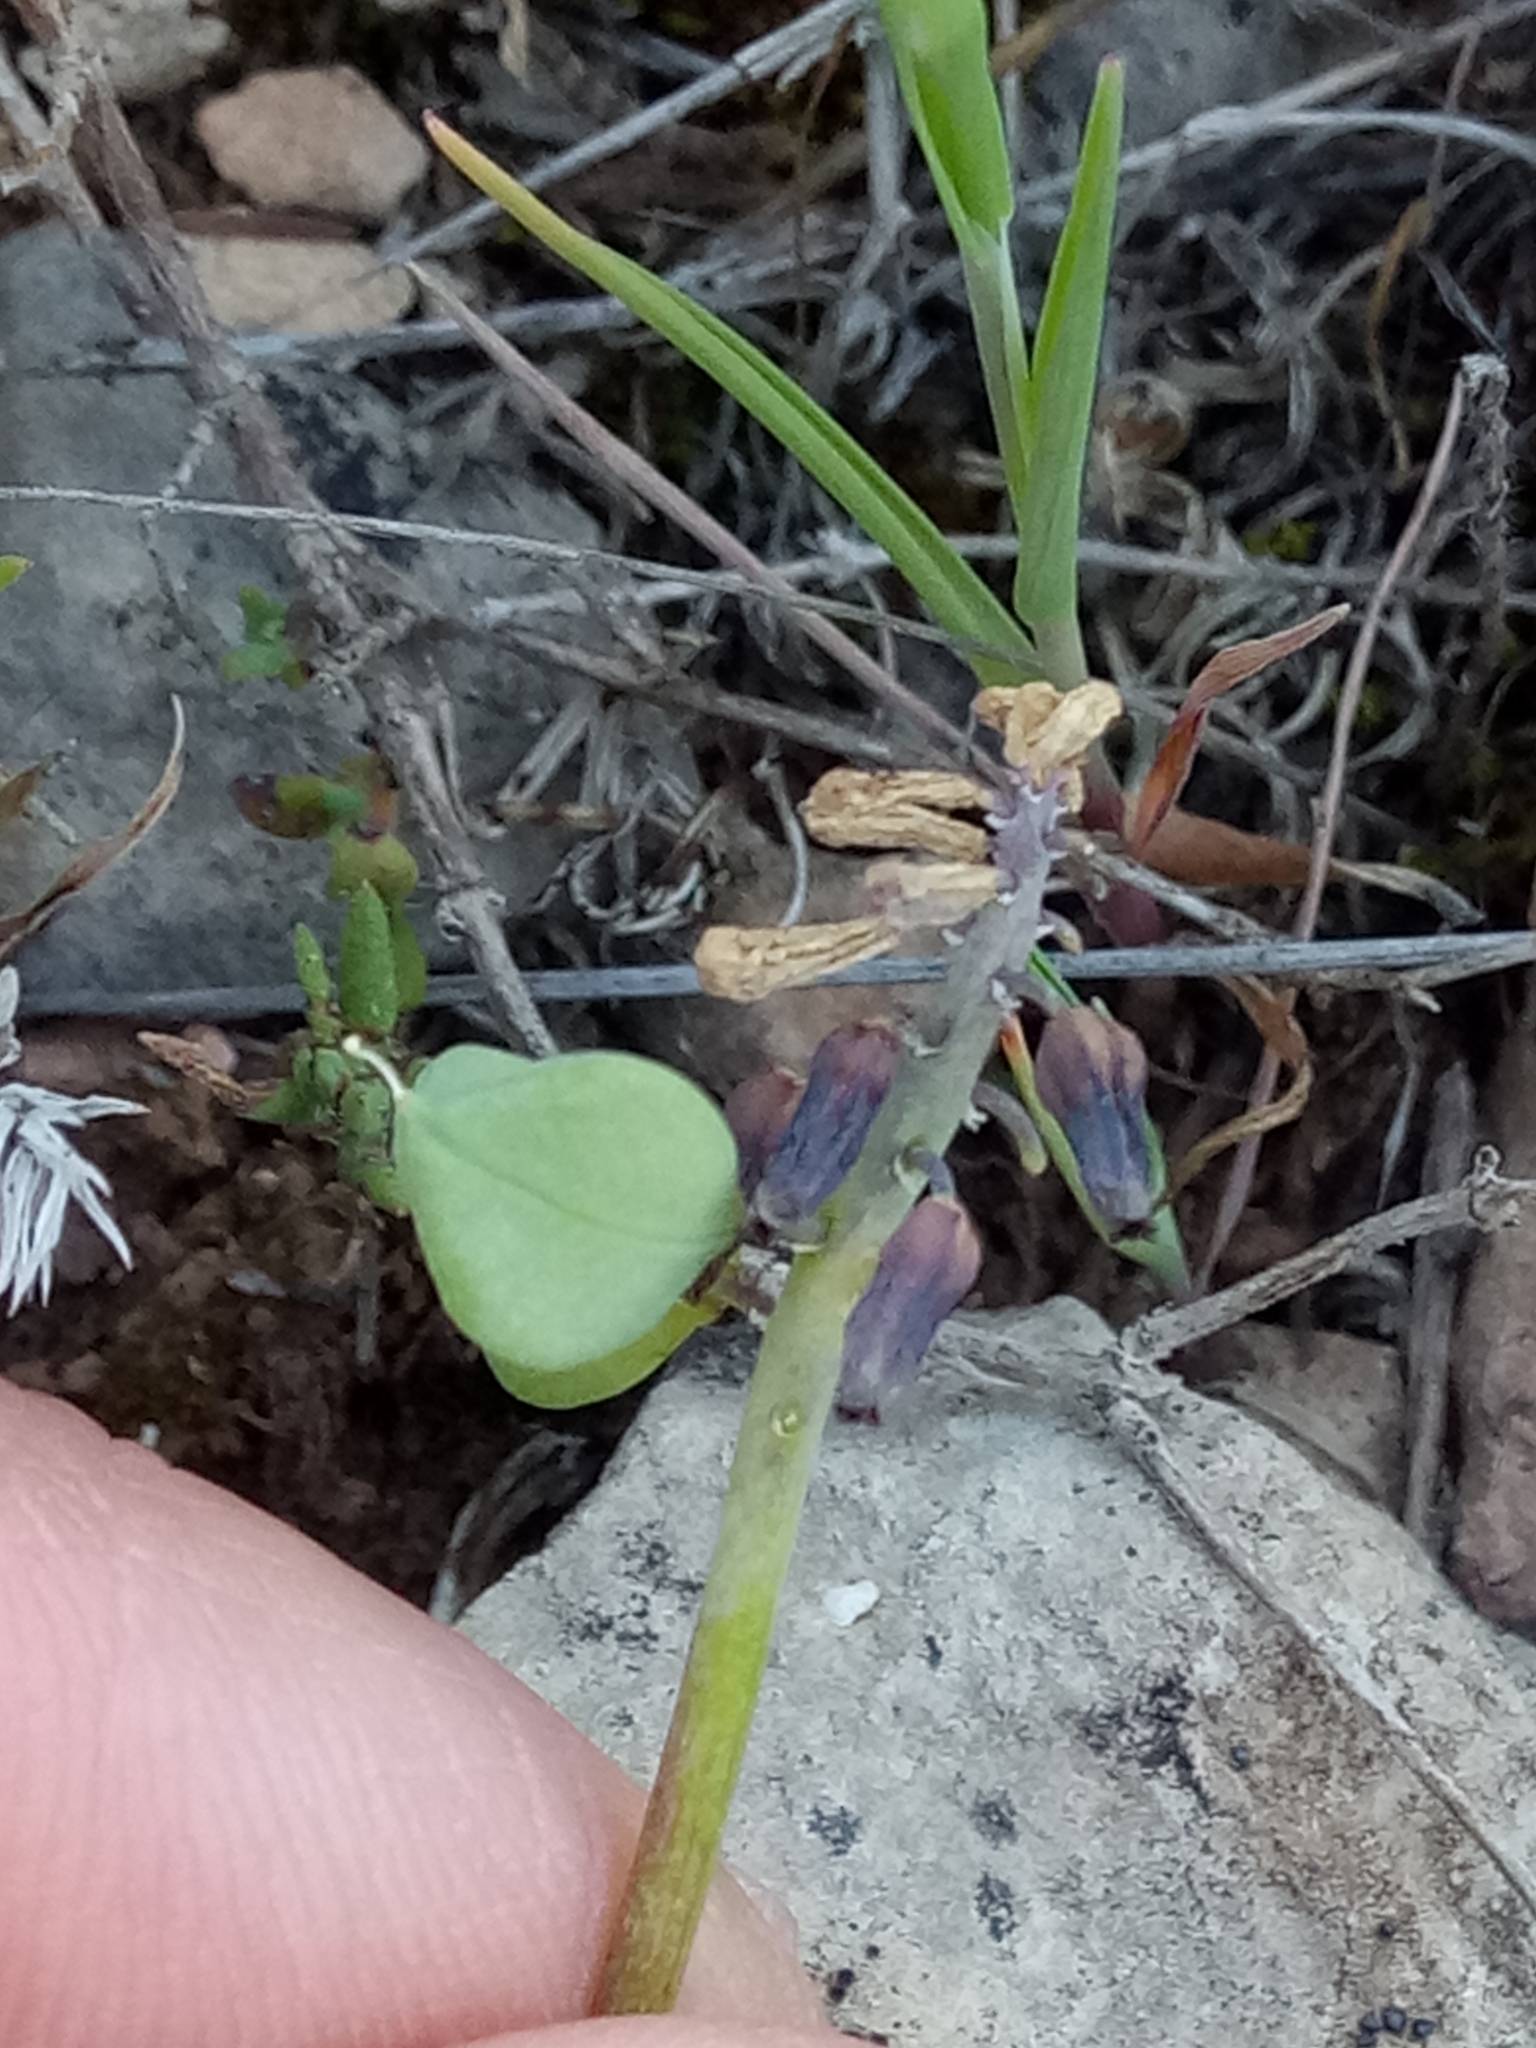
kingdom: Plantae
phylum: Tracheophyta
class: Liliopsida
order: Asparagales
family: Asparagaceae
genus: Muscari
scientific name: Muscari baeticum
